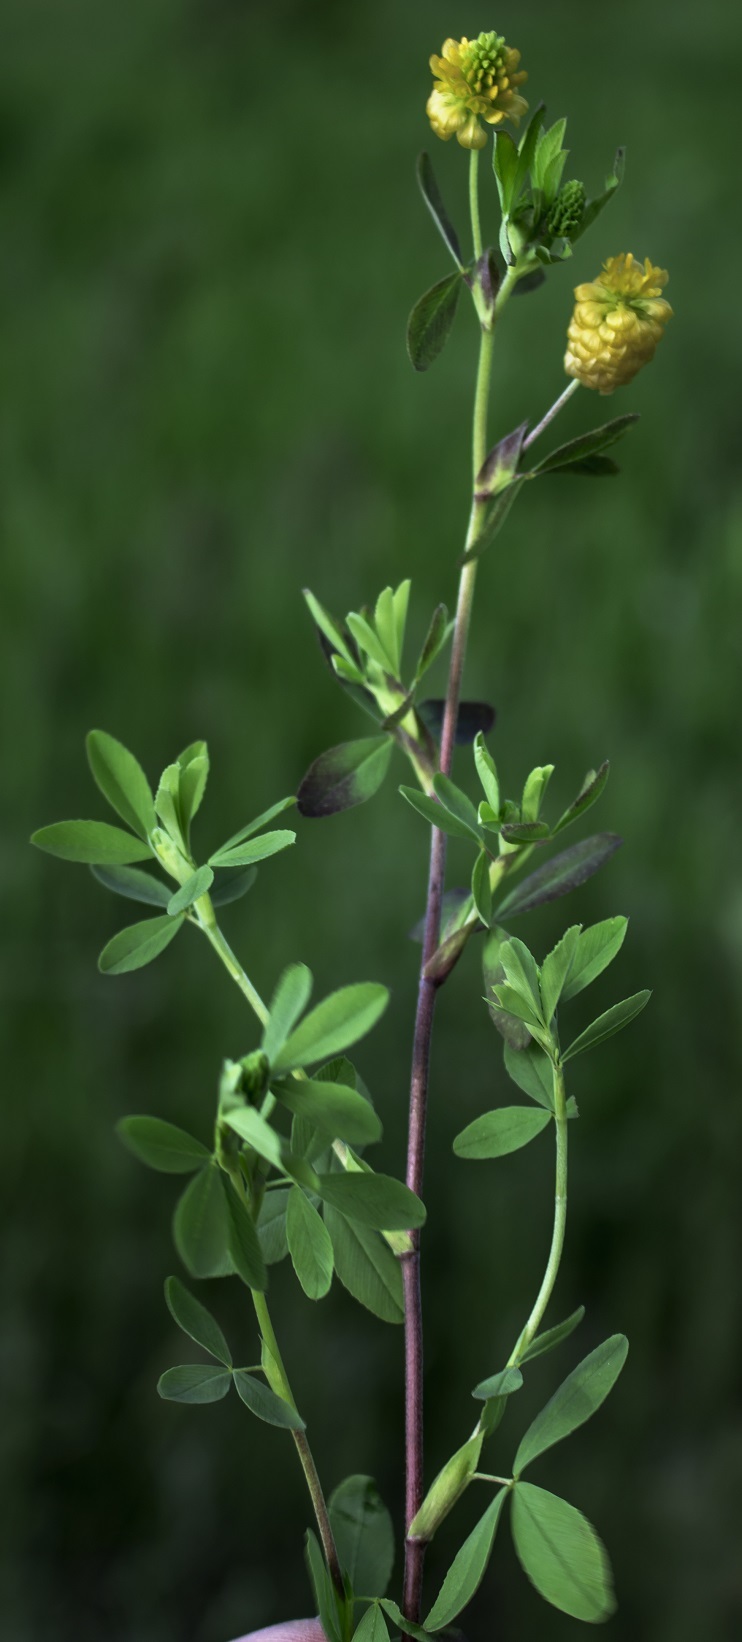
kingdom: Plantae
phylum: Tracheophyta
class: Magnoliopsida
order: Fabales
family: Fabaceae
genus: Trifolium
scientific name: Trifolium aureum
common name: Golden clover
